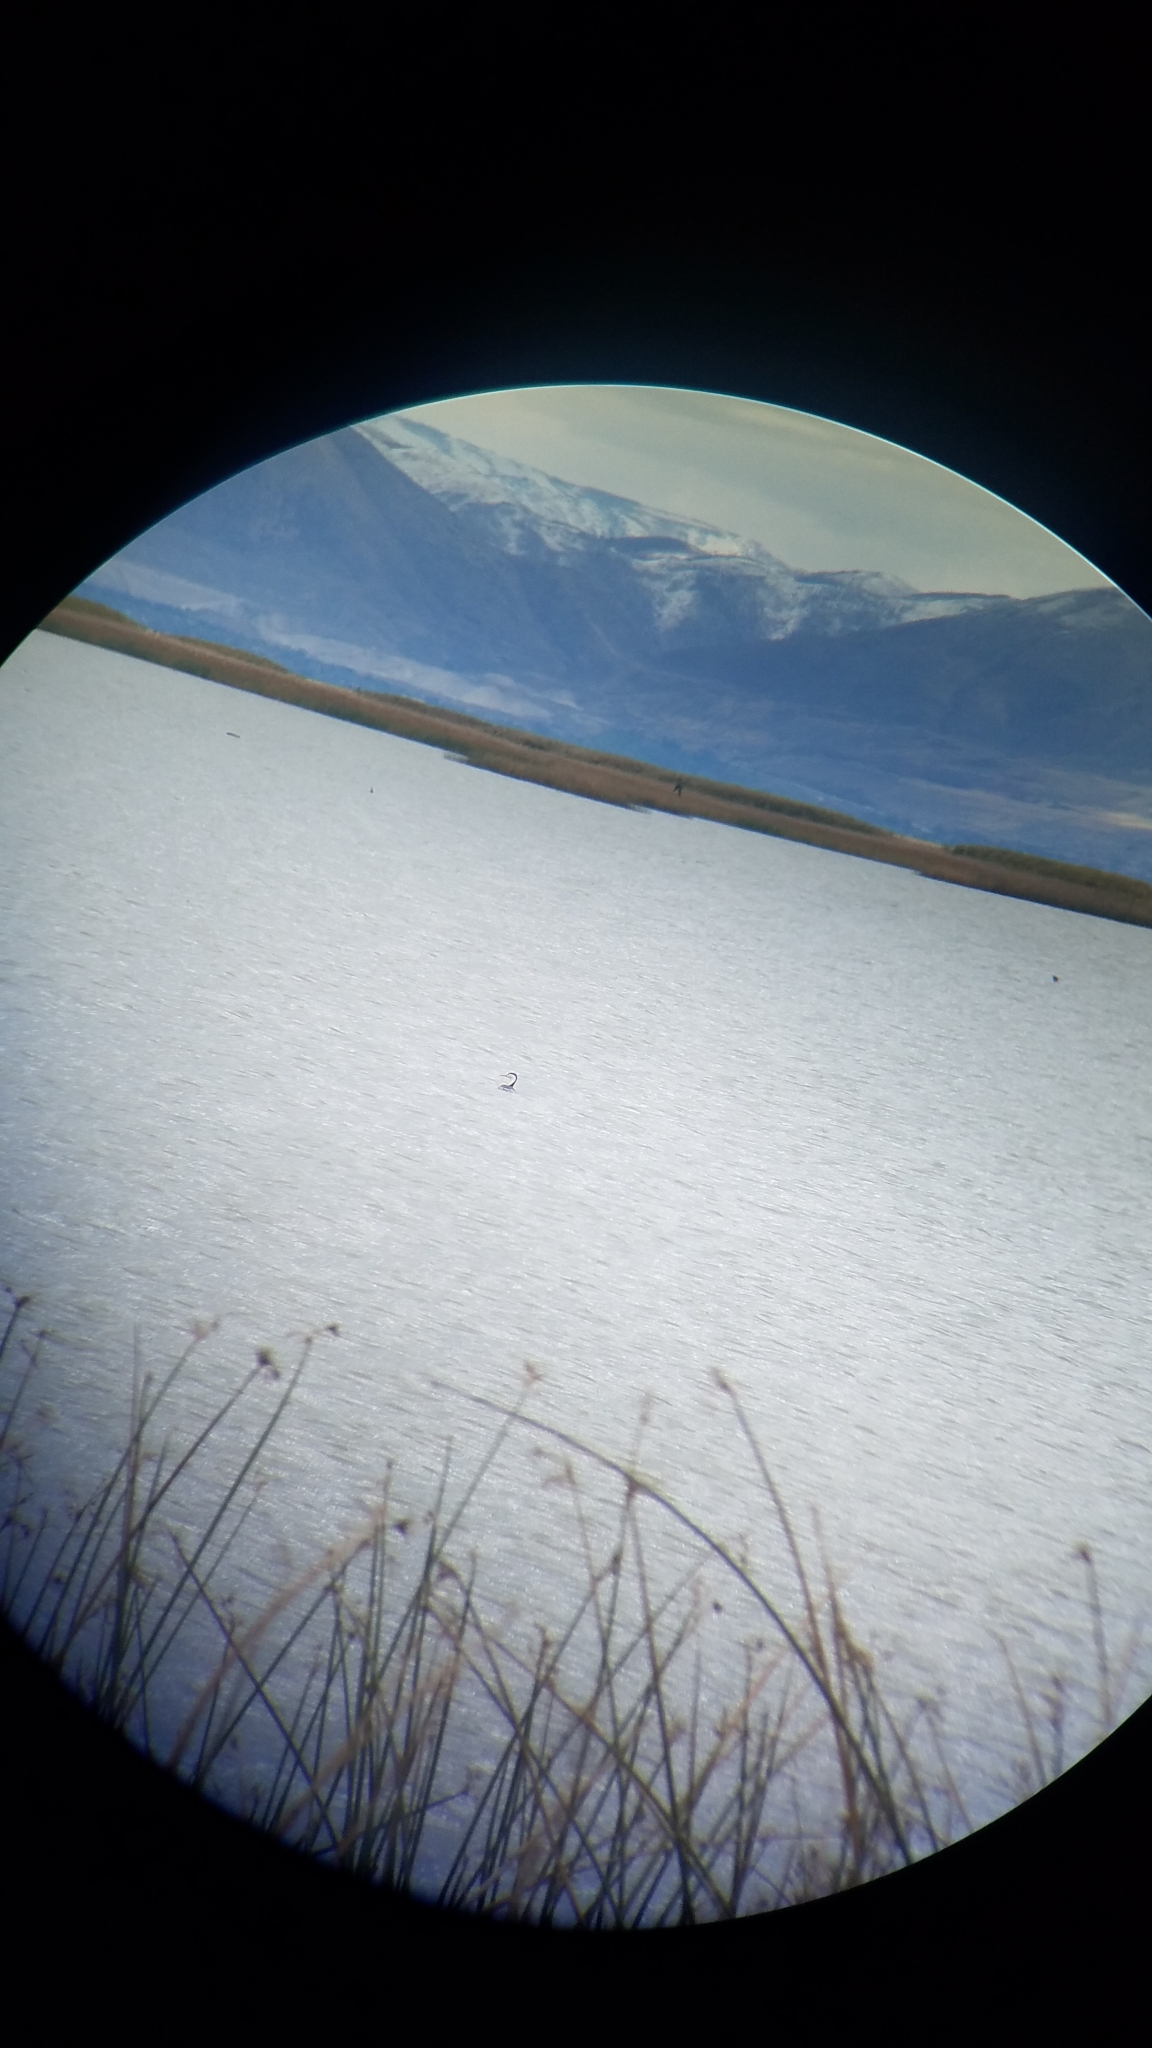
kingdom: Animalia
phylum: Chordata
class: Aves
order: Podicipediformes
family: Podicipedidae
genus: Aechmophorus
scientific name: Aechmophorus clarkii
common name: Clark's grebe
